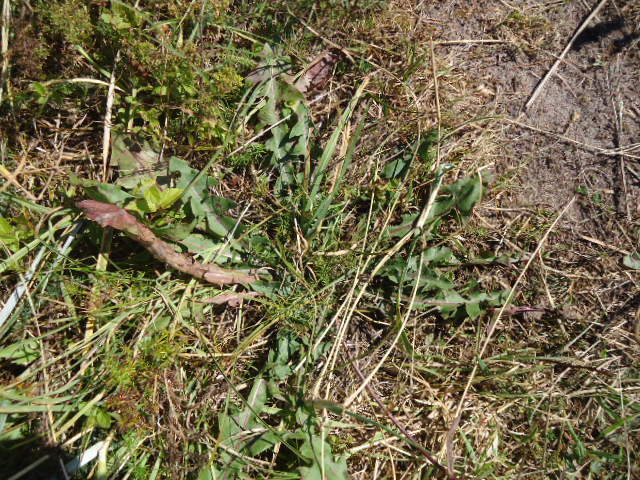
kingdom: Plantae
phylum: Tracheophyta
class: Magnoliopsida
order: Asterales
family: Asteraceae
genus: Taraxacum
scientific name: Taraxacum officinale
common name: Common dandelion
